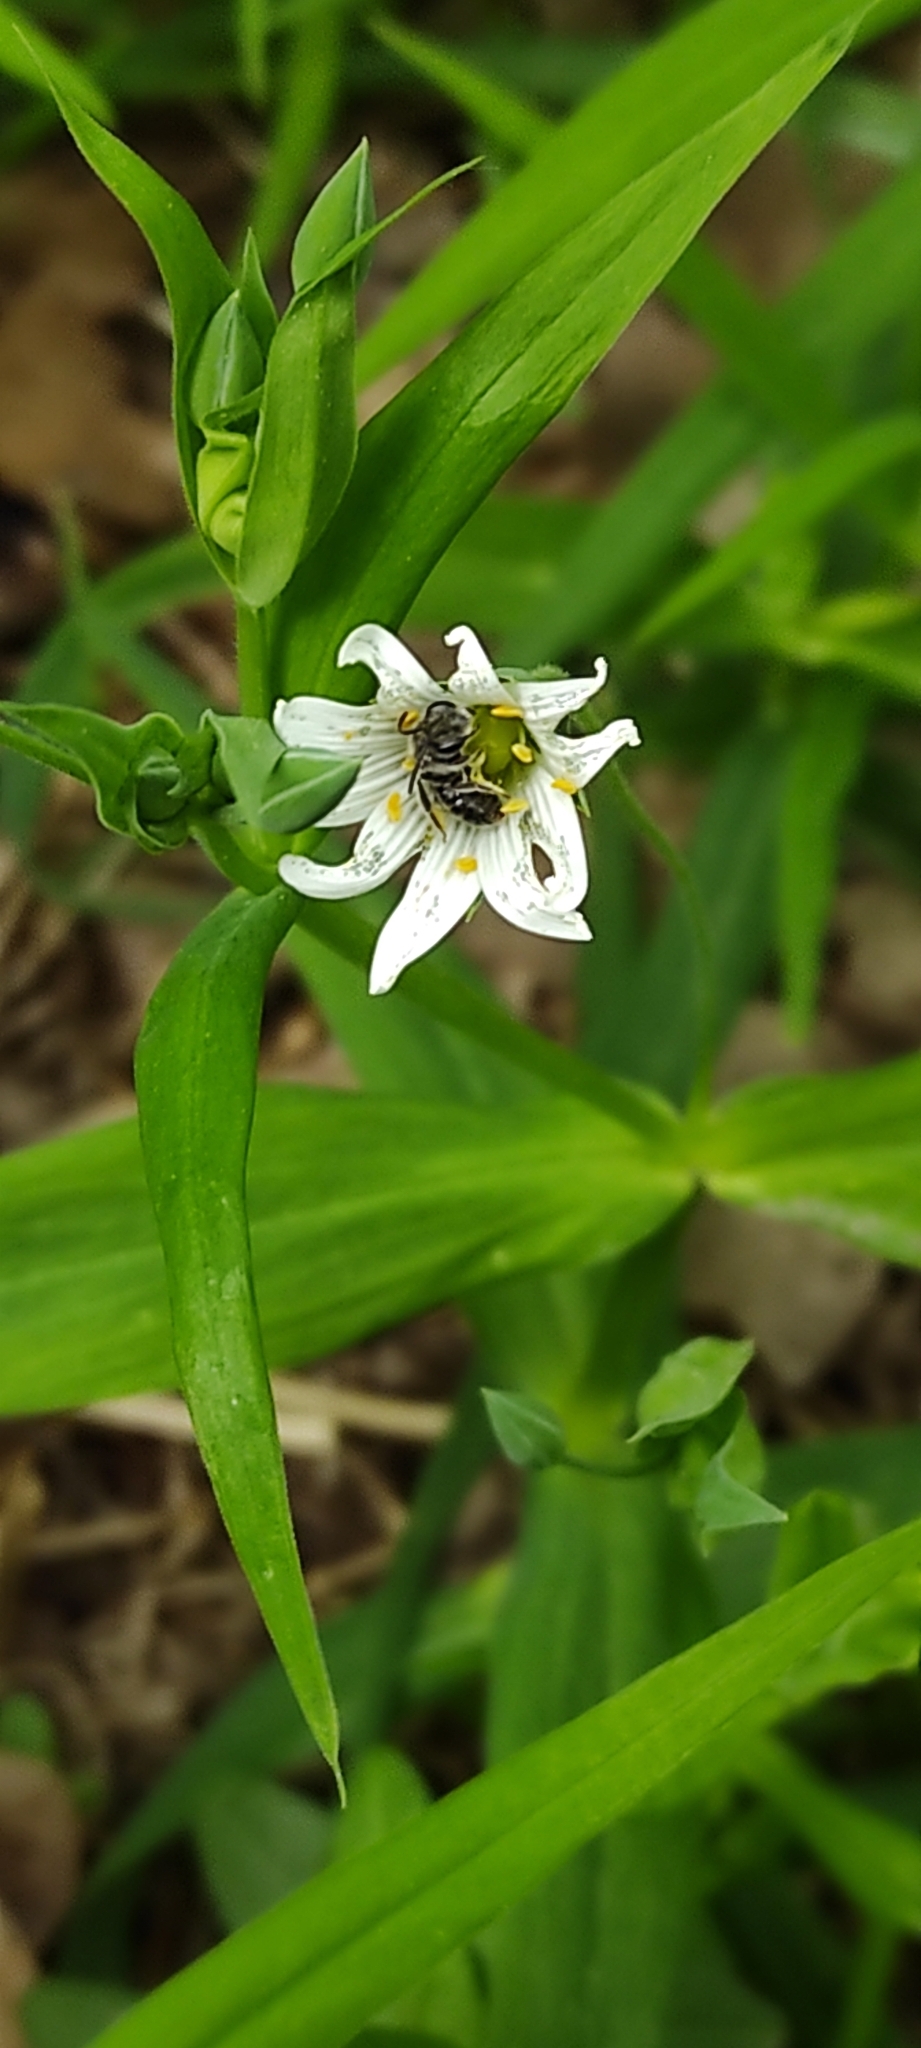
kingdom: Plantae
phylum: Tracheophyta
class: Magnoliopsida
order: Caryophyllales
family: Caryophyllaceae
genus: Rabelera
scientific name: Rabelera holostea
